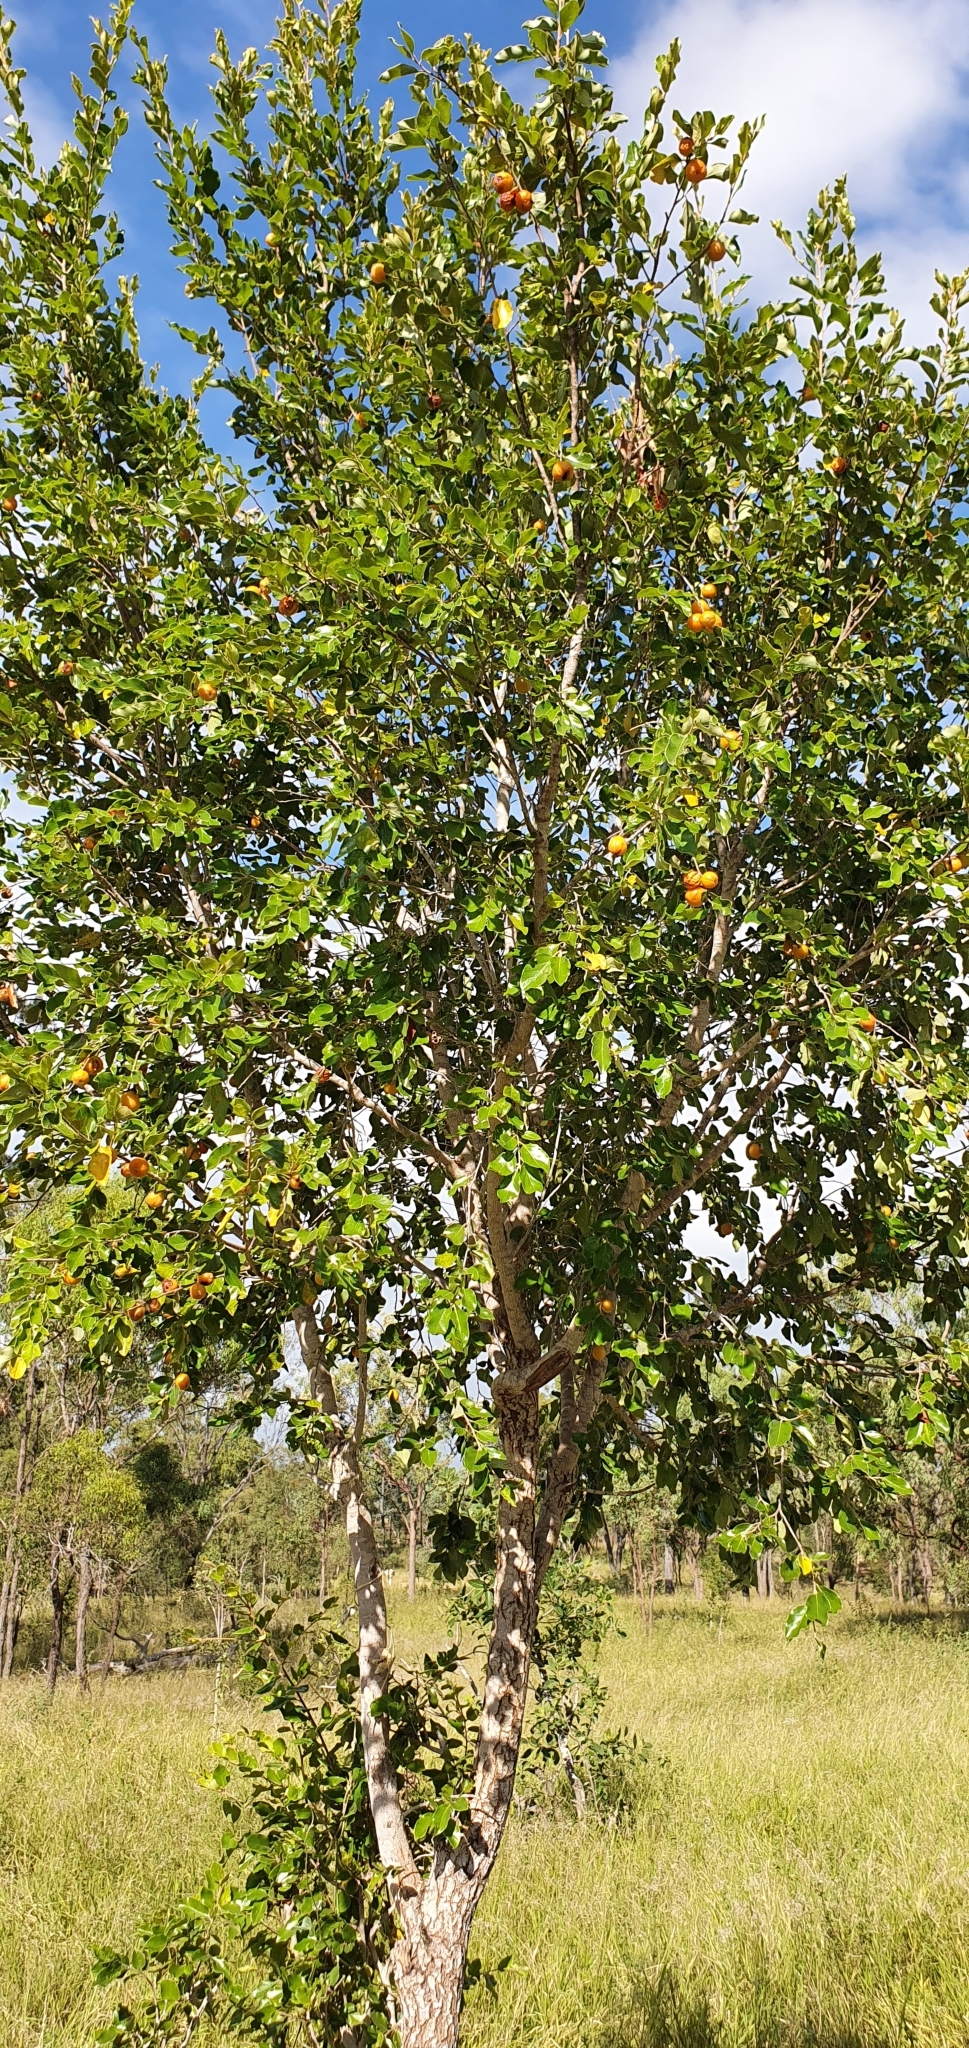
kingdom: Plantae
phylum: Tracheophyta
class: Magnoliopsida
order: Malpighiales
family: Picrodendraceae
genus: Petalostigma
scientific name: Petalostigma pubescens
